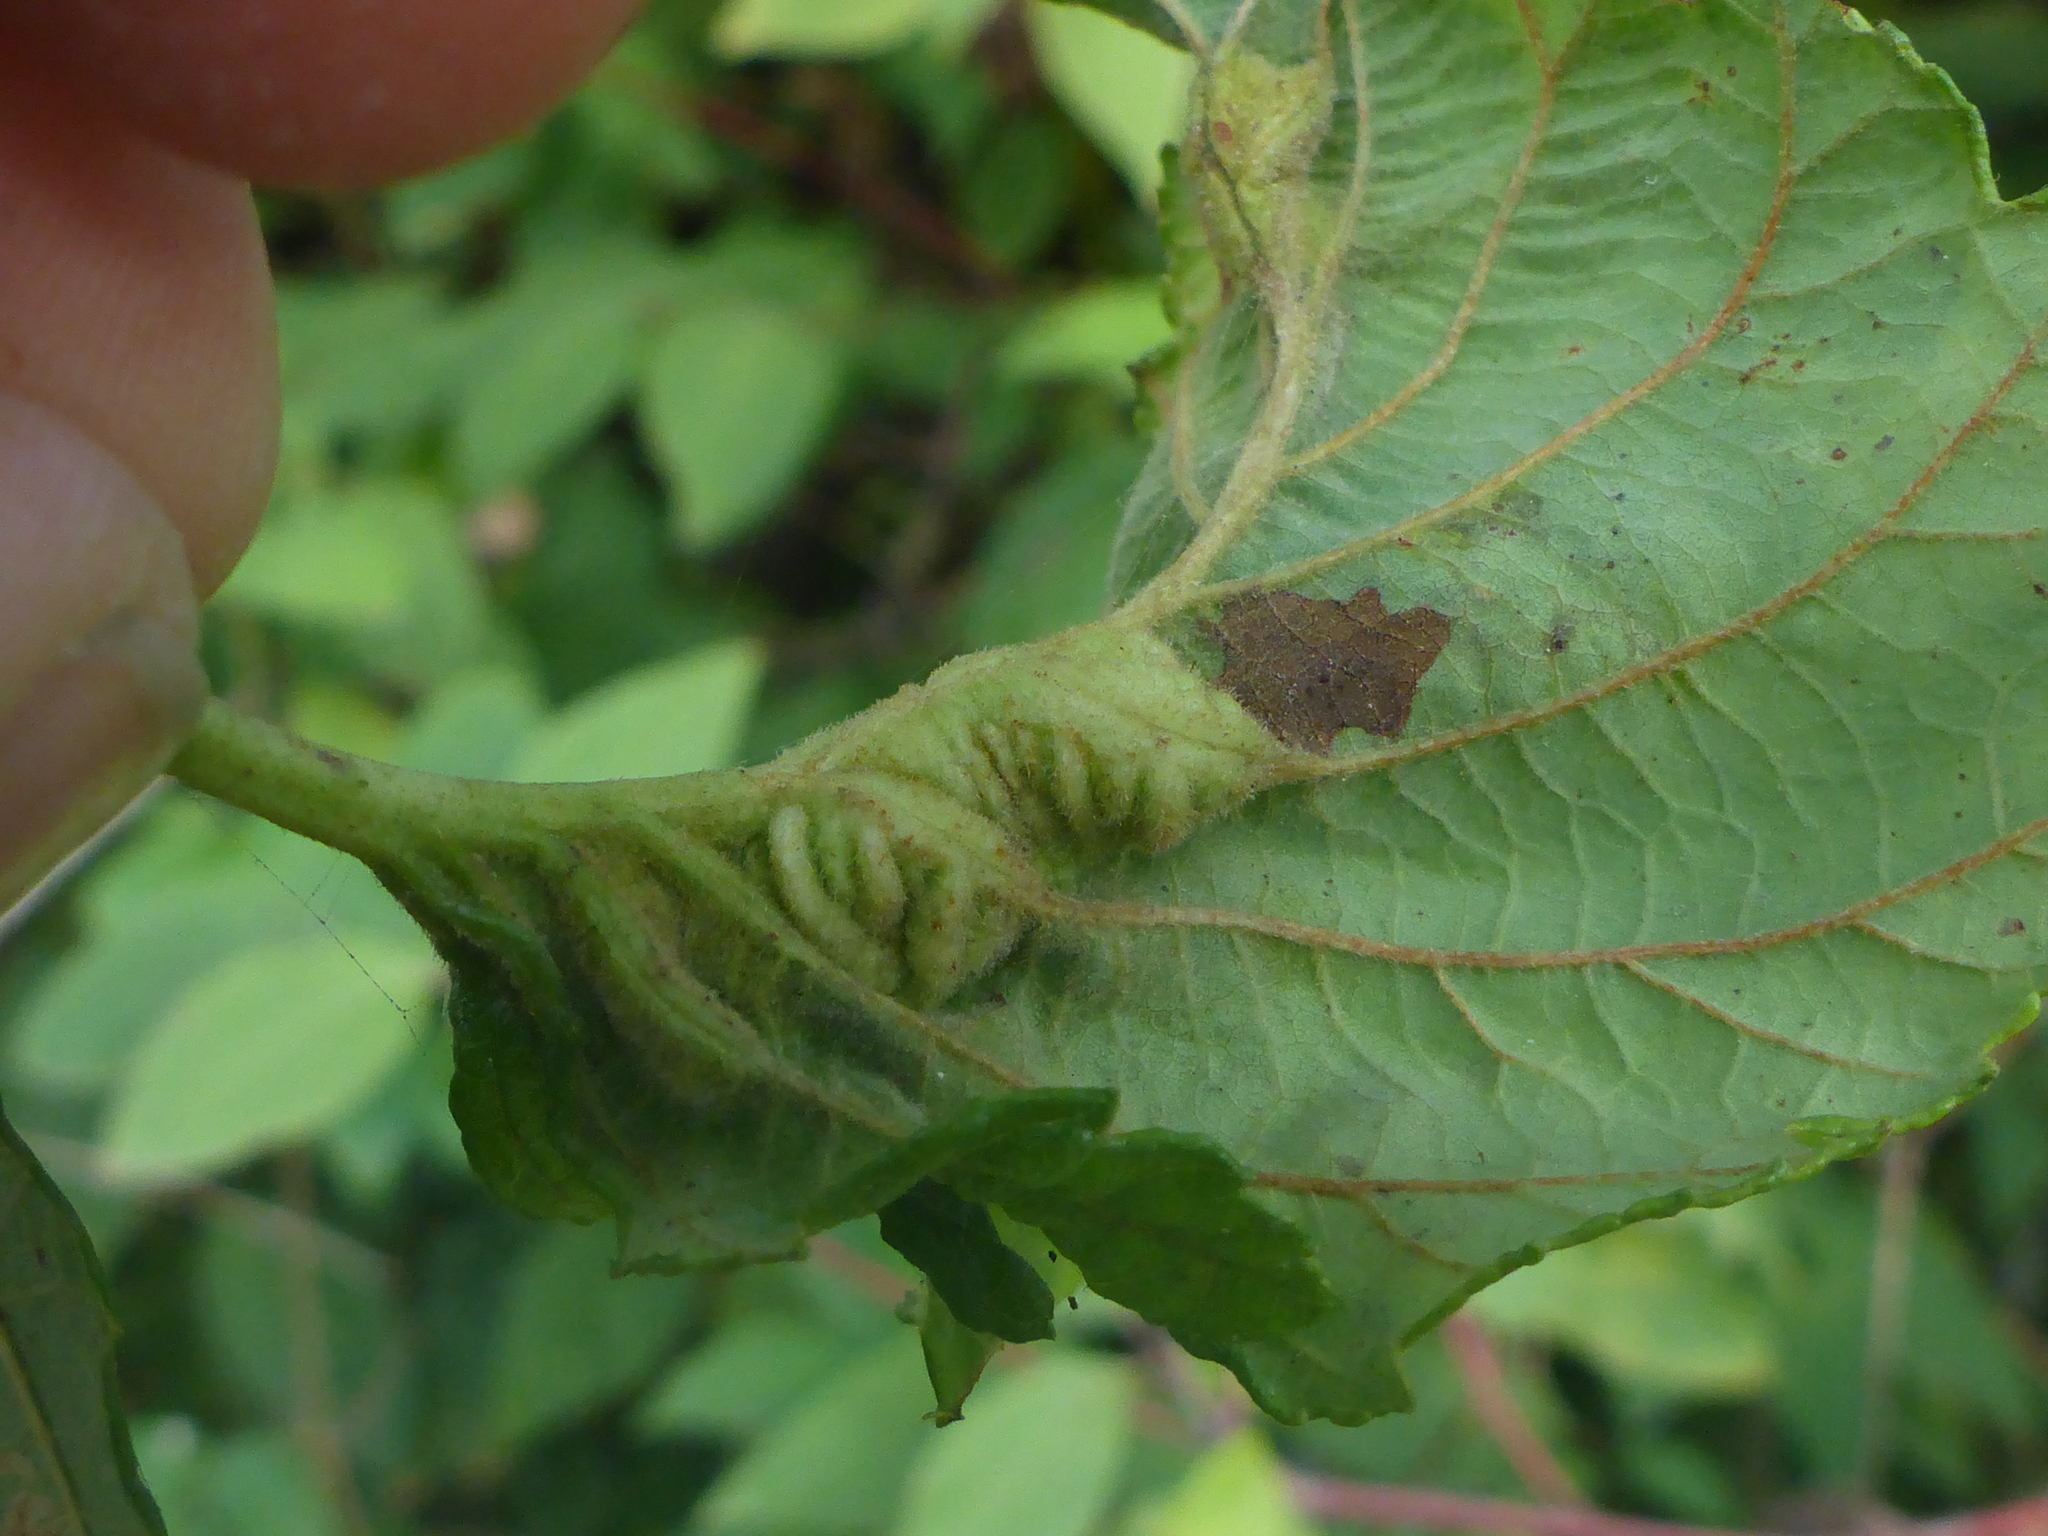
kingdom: Animalia
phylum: Arthropoda
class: Insecta
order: Diptera
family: Cecidomyiidae
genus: Dasineura
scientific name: Dasineura
